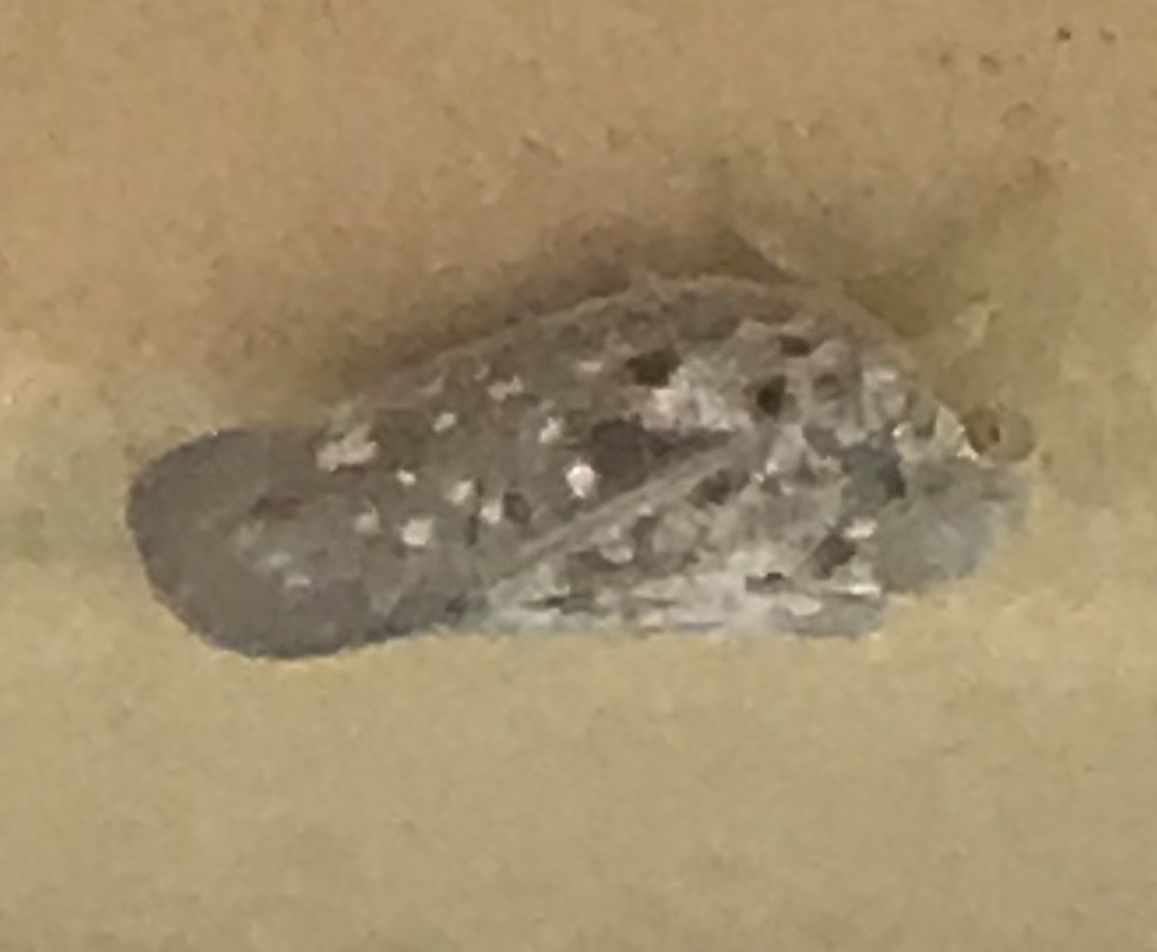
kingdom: Animalia
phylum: Arthropoda
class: Insecta
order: Hemiptera
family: Flatidae
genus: Metcalfa
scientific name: Metcalfa pruinosa
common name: Citrus flatid planthopper
